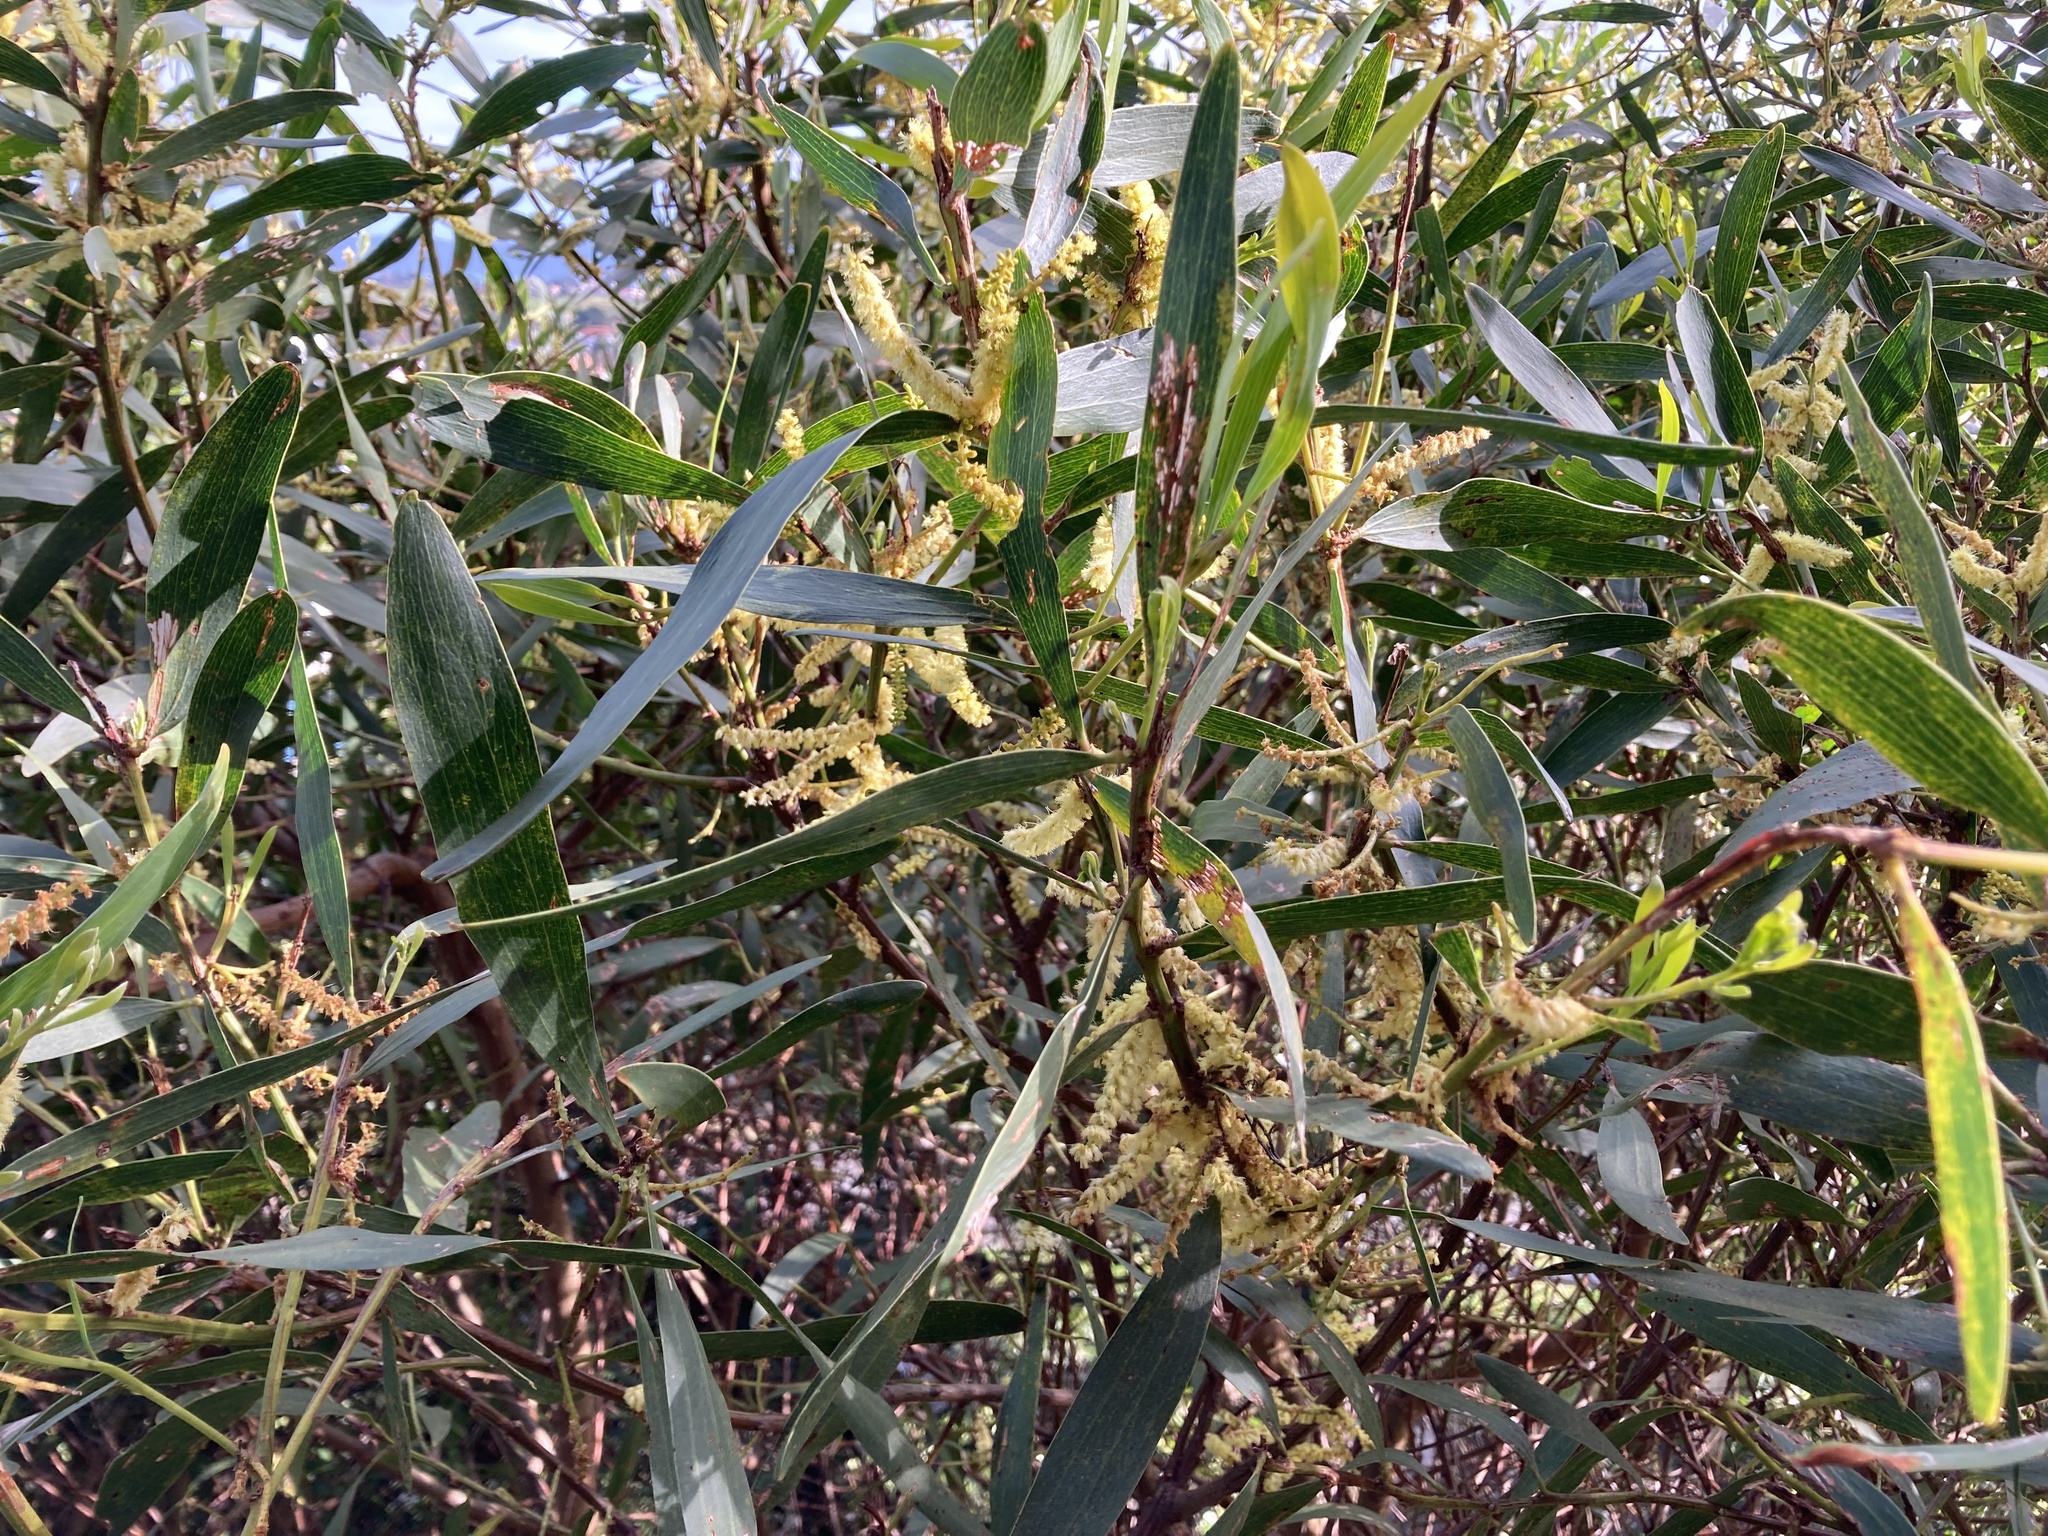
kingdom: Plantae
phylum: Tracheophyta
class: Magnoliopsida
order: Fabales
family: Fabaceae
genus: Acacia
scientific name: Acacia longifolia
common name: Sydney golden wattle
